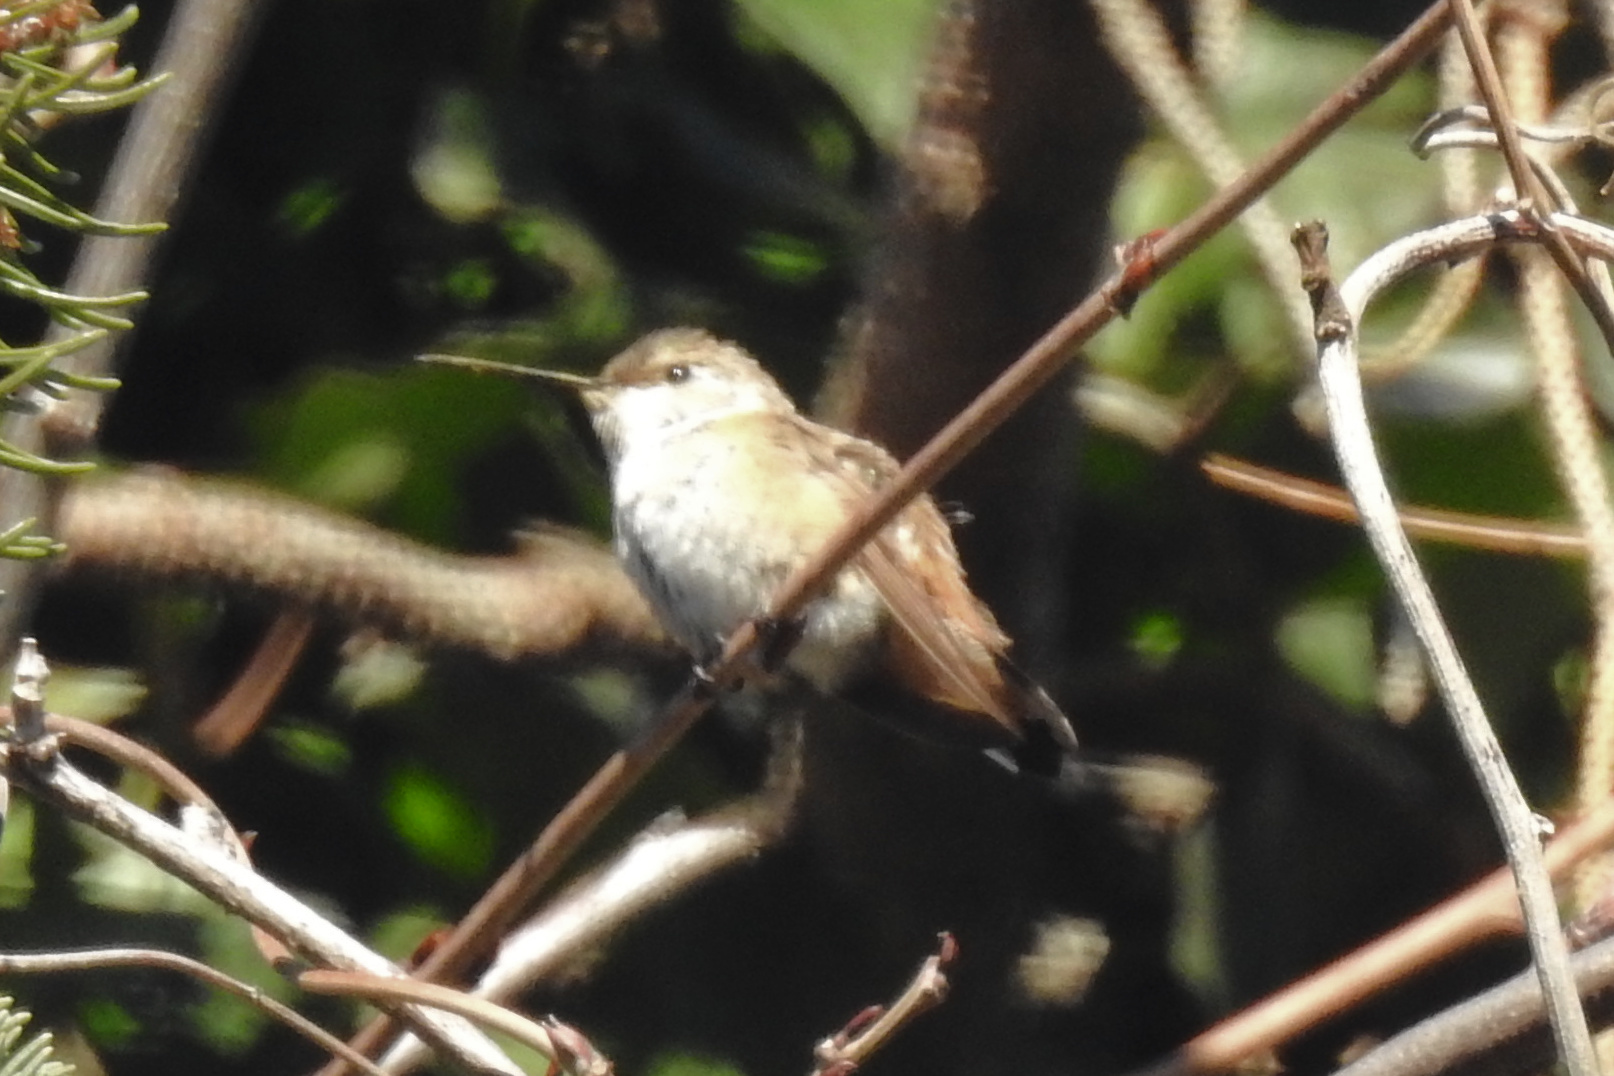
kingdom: Animalia
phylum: Chordata
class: Aves
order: Apodiformes
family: Trochilidae
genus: Selasphorus
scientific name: Selasphorus sasin
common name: Allen's hummingbird
